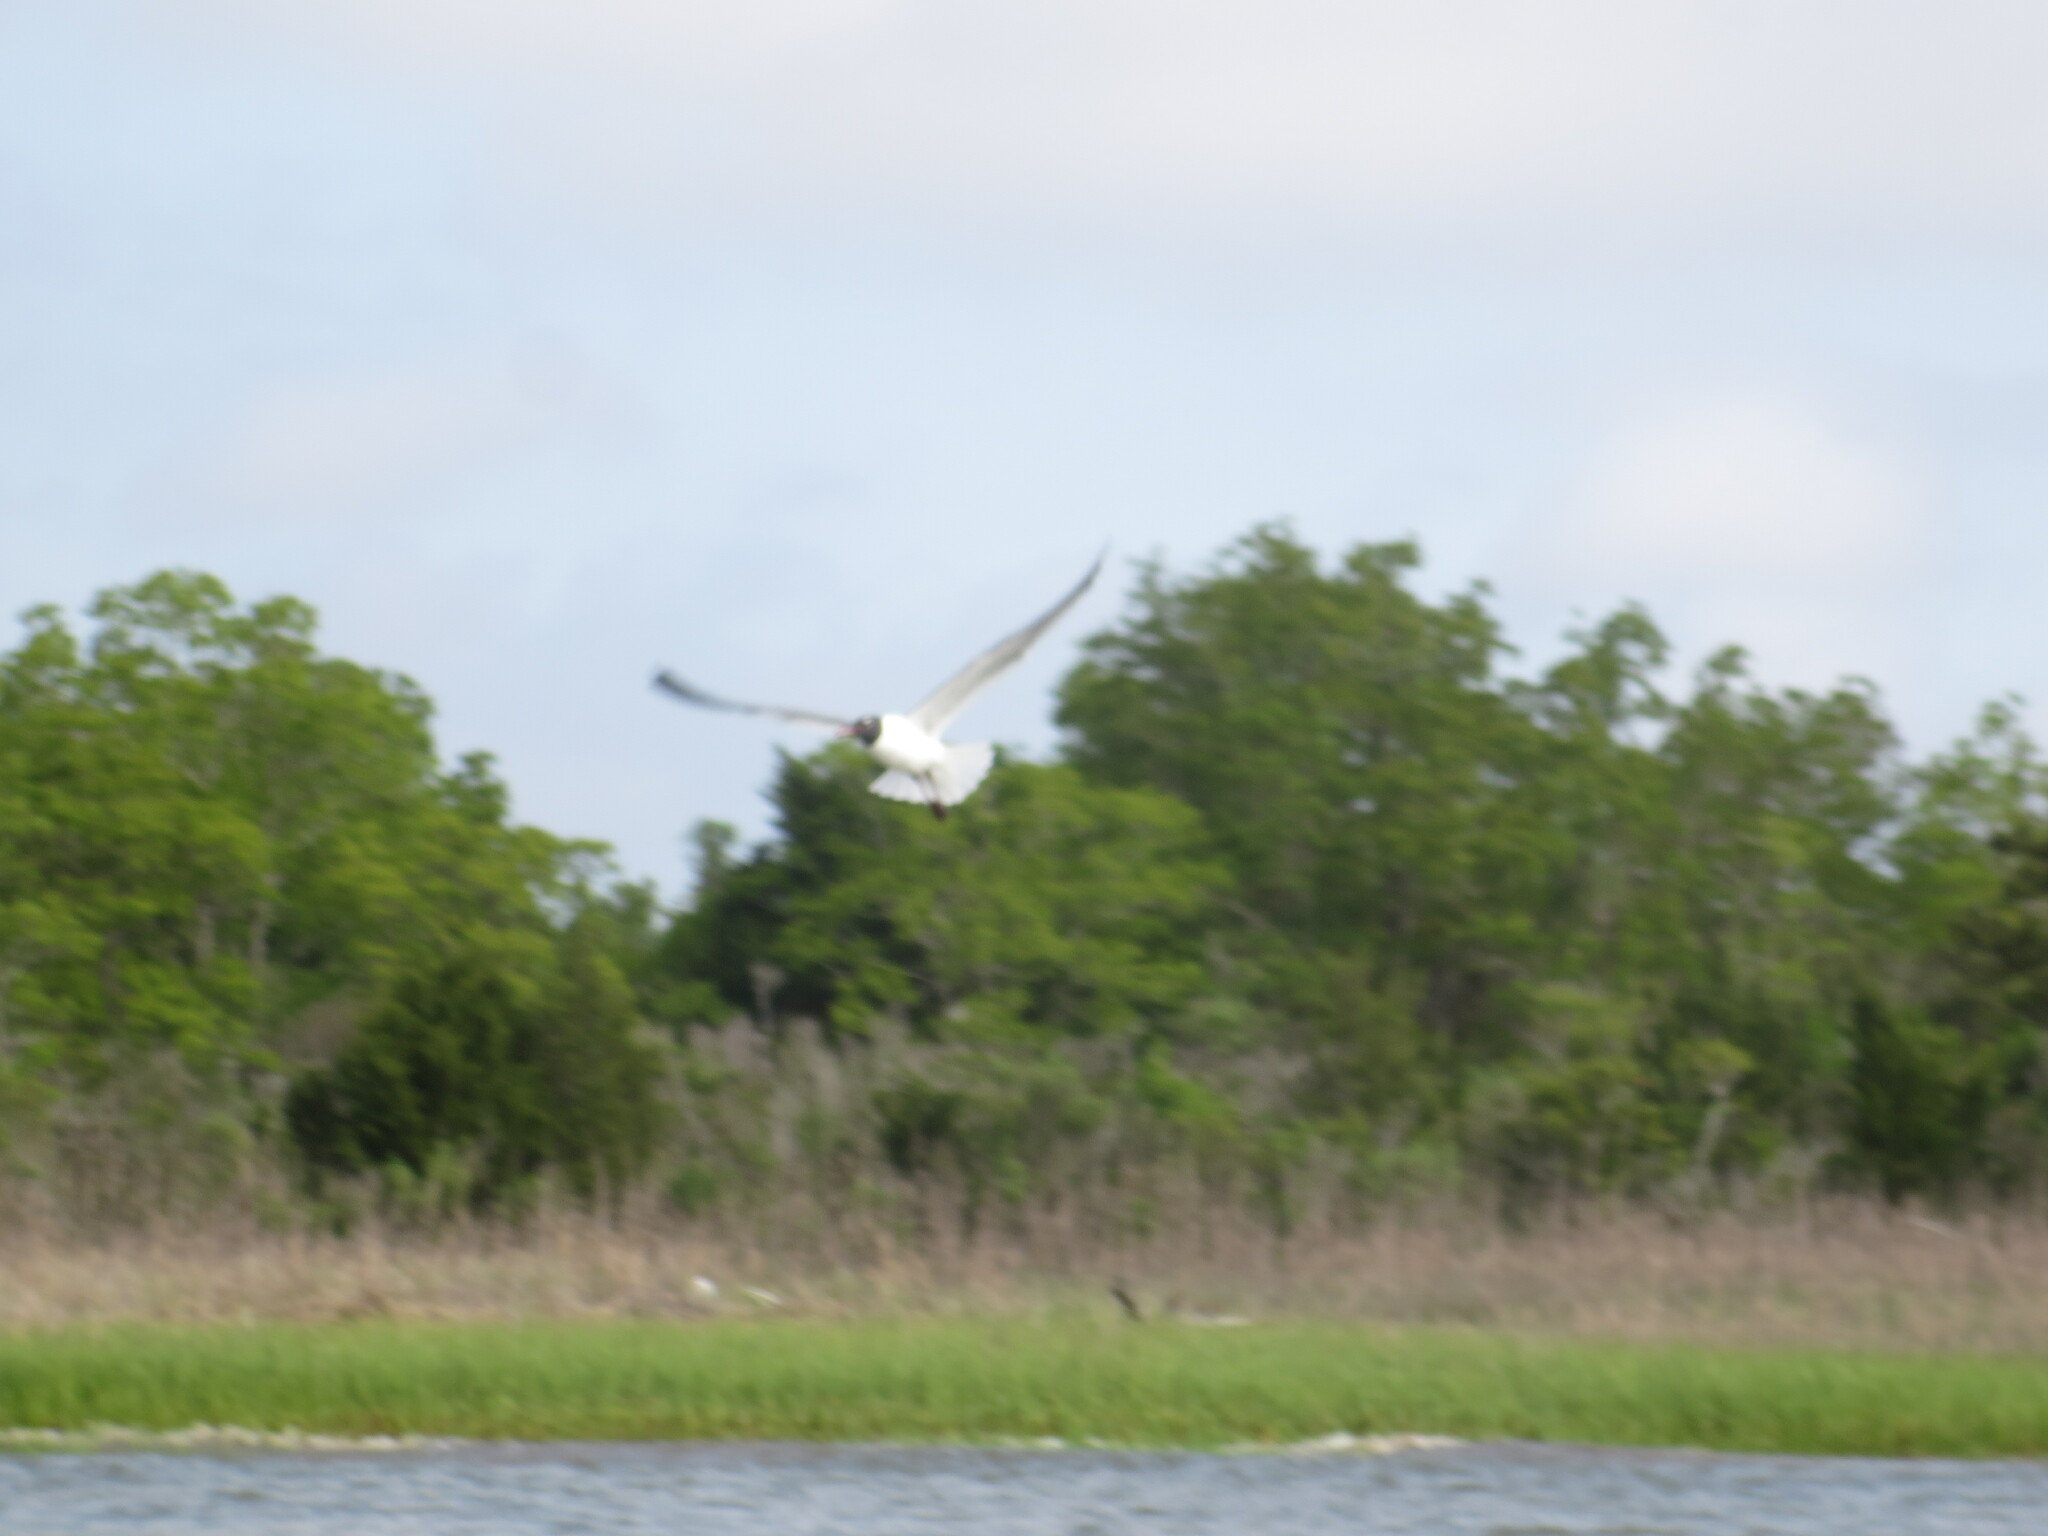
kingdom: Animalia
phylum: Chordata
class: Aves
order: Charadriiformes
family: Laridae
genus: Leucophaeus
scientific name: Leucophaeus atricilla
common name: Laughing gull
